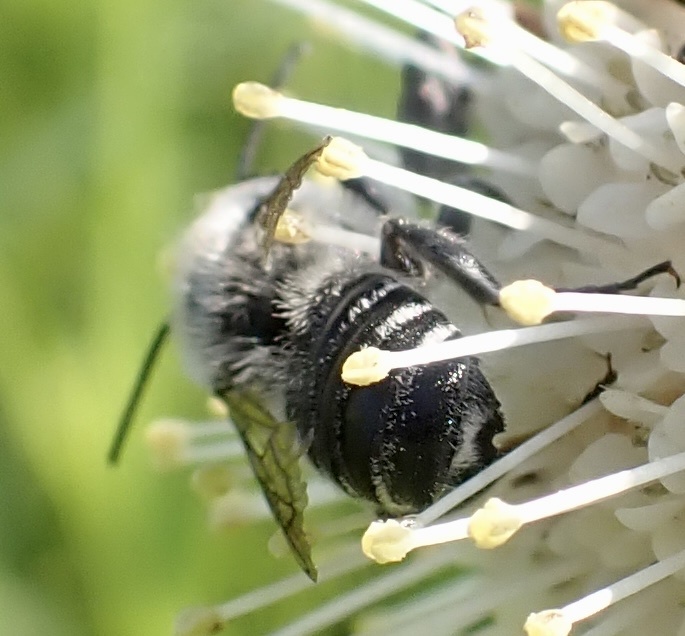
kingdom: Animalia
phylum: Arthropoda
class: Insecta
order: Hymenoptera
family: Megachilidae
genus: Megachile
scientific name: Megachile mendica
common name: Flat-tailed leafcutter
